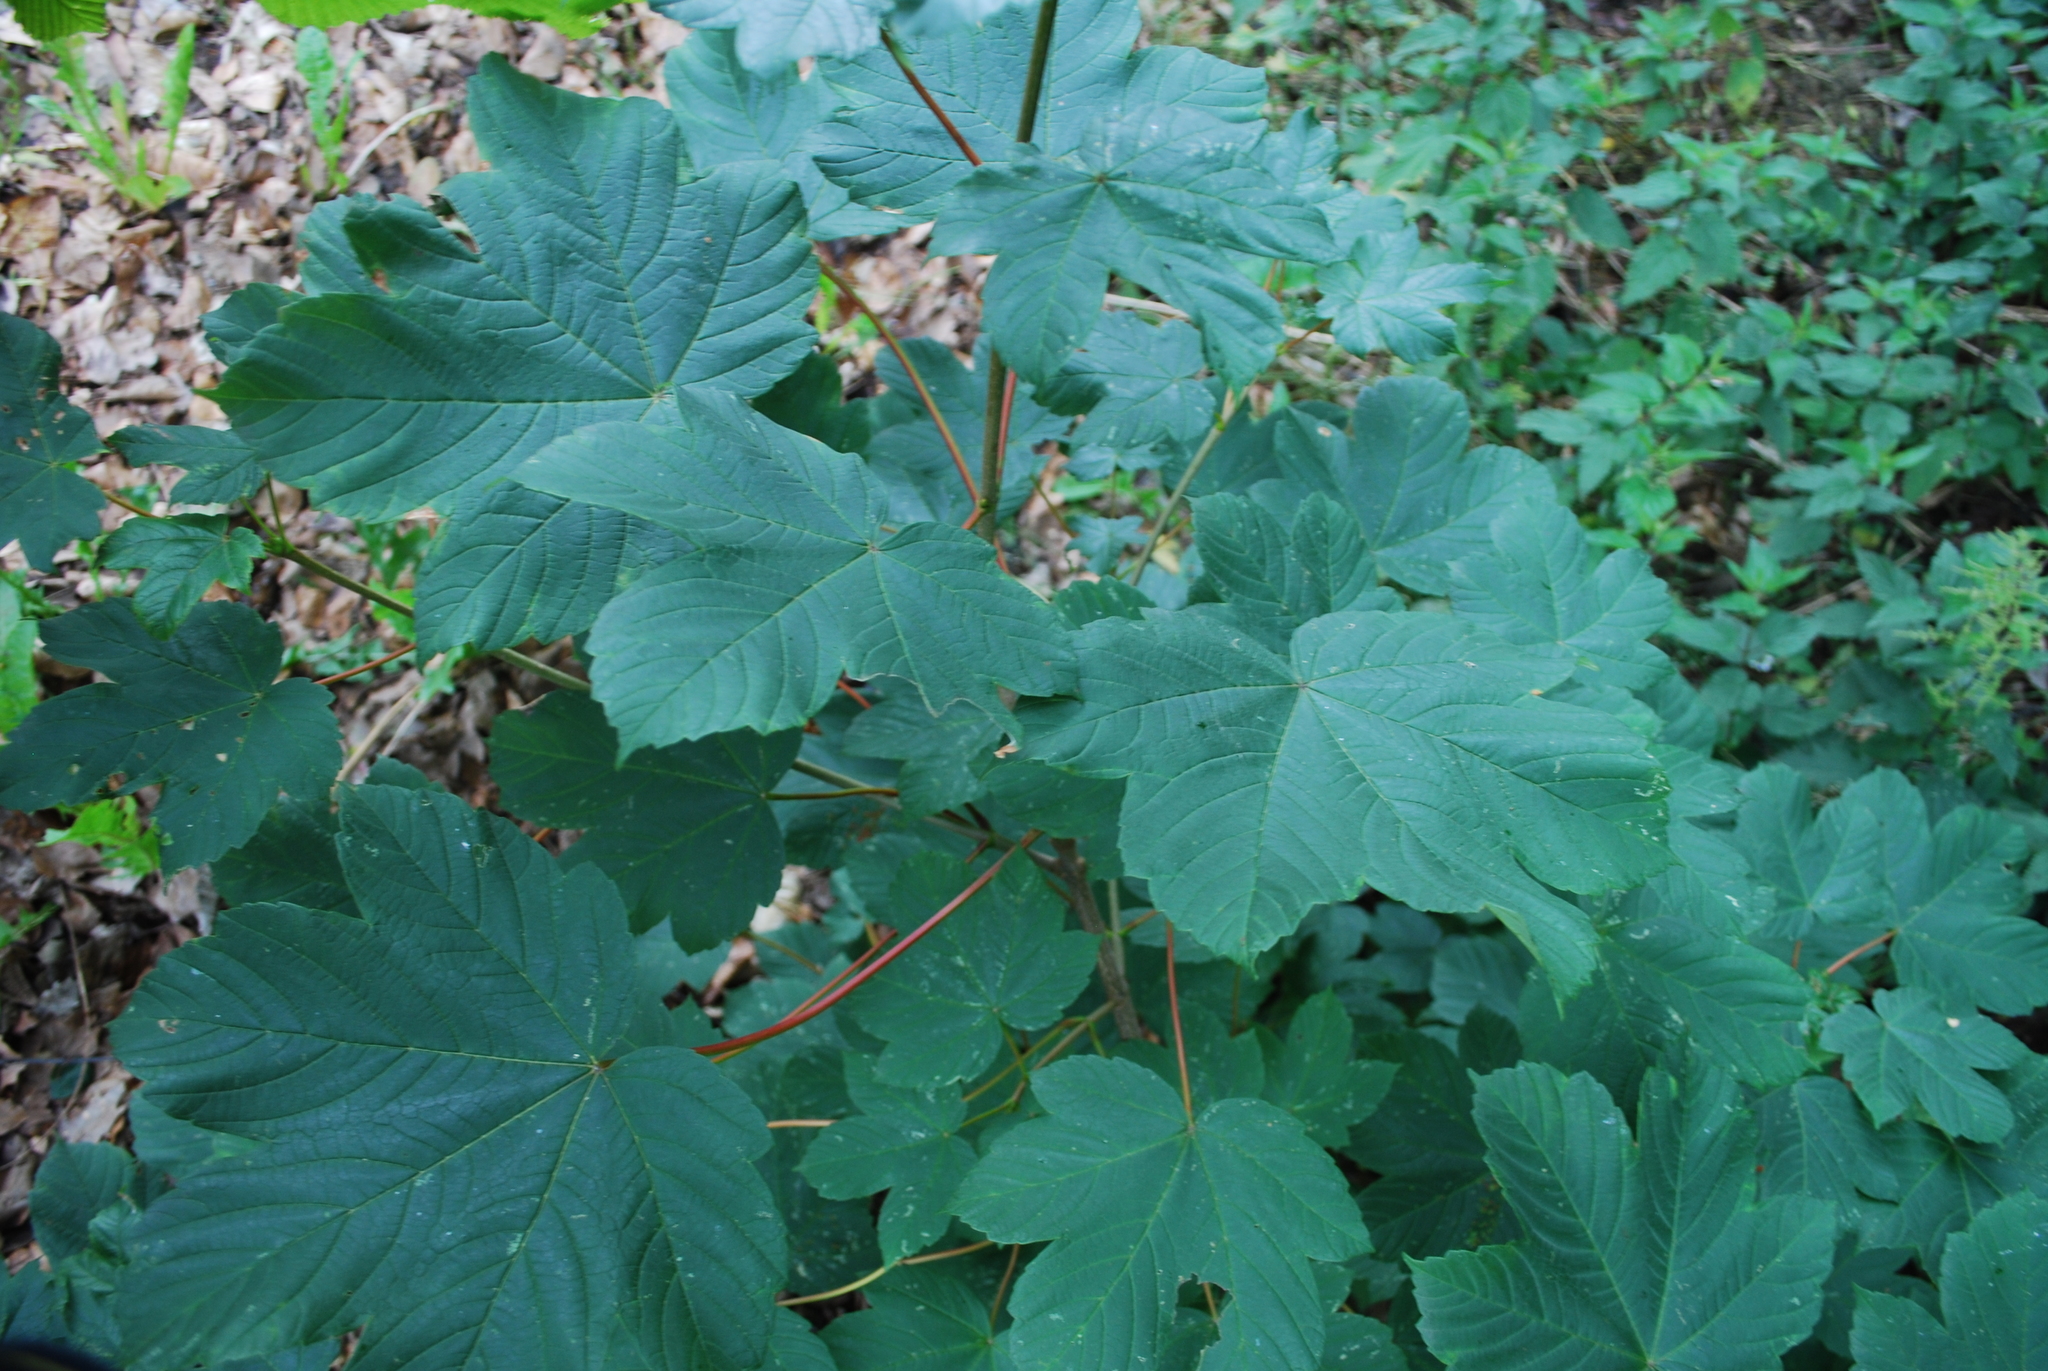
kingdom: Plantae
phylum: Tracheophyta
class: Magnoliopsida
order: Sapindales
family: Sapindaceae
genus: Acer
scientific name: Acer pseudoplatanus
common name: Sycamore
